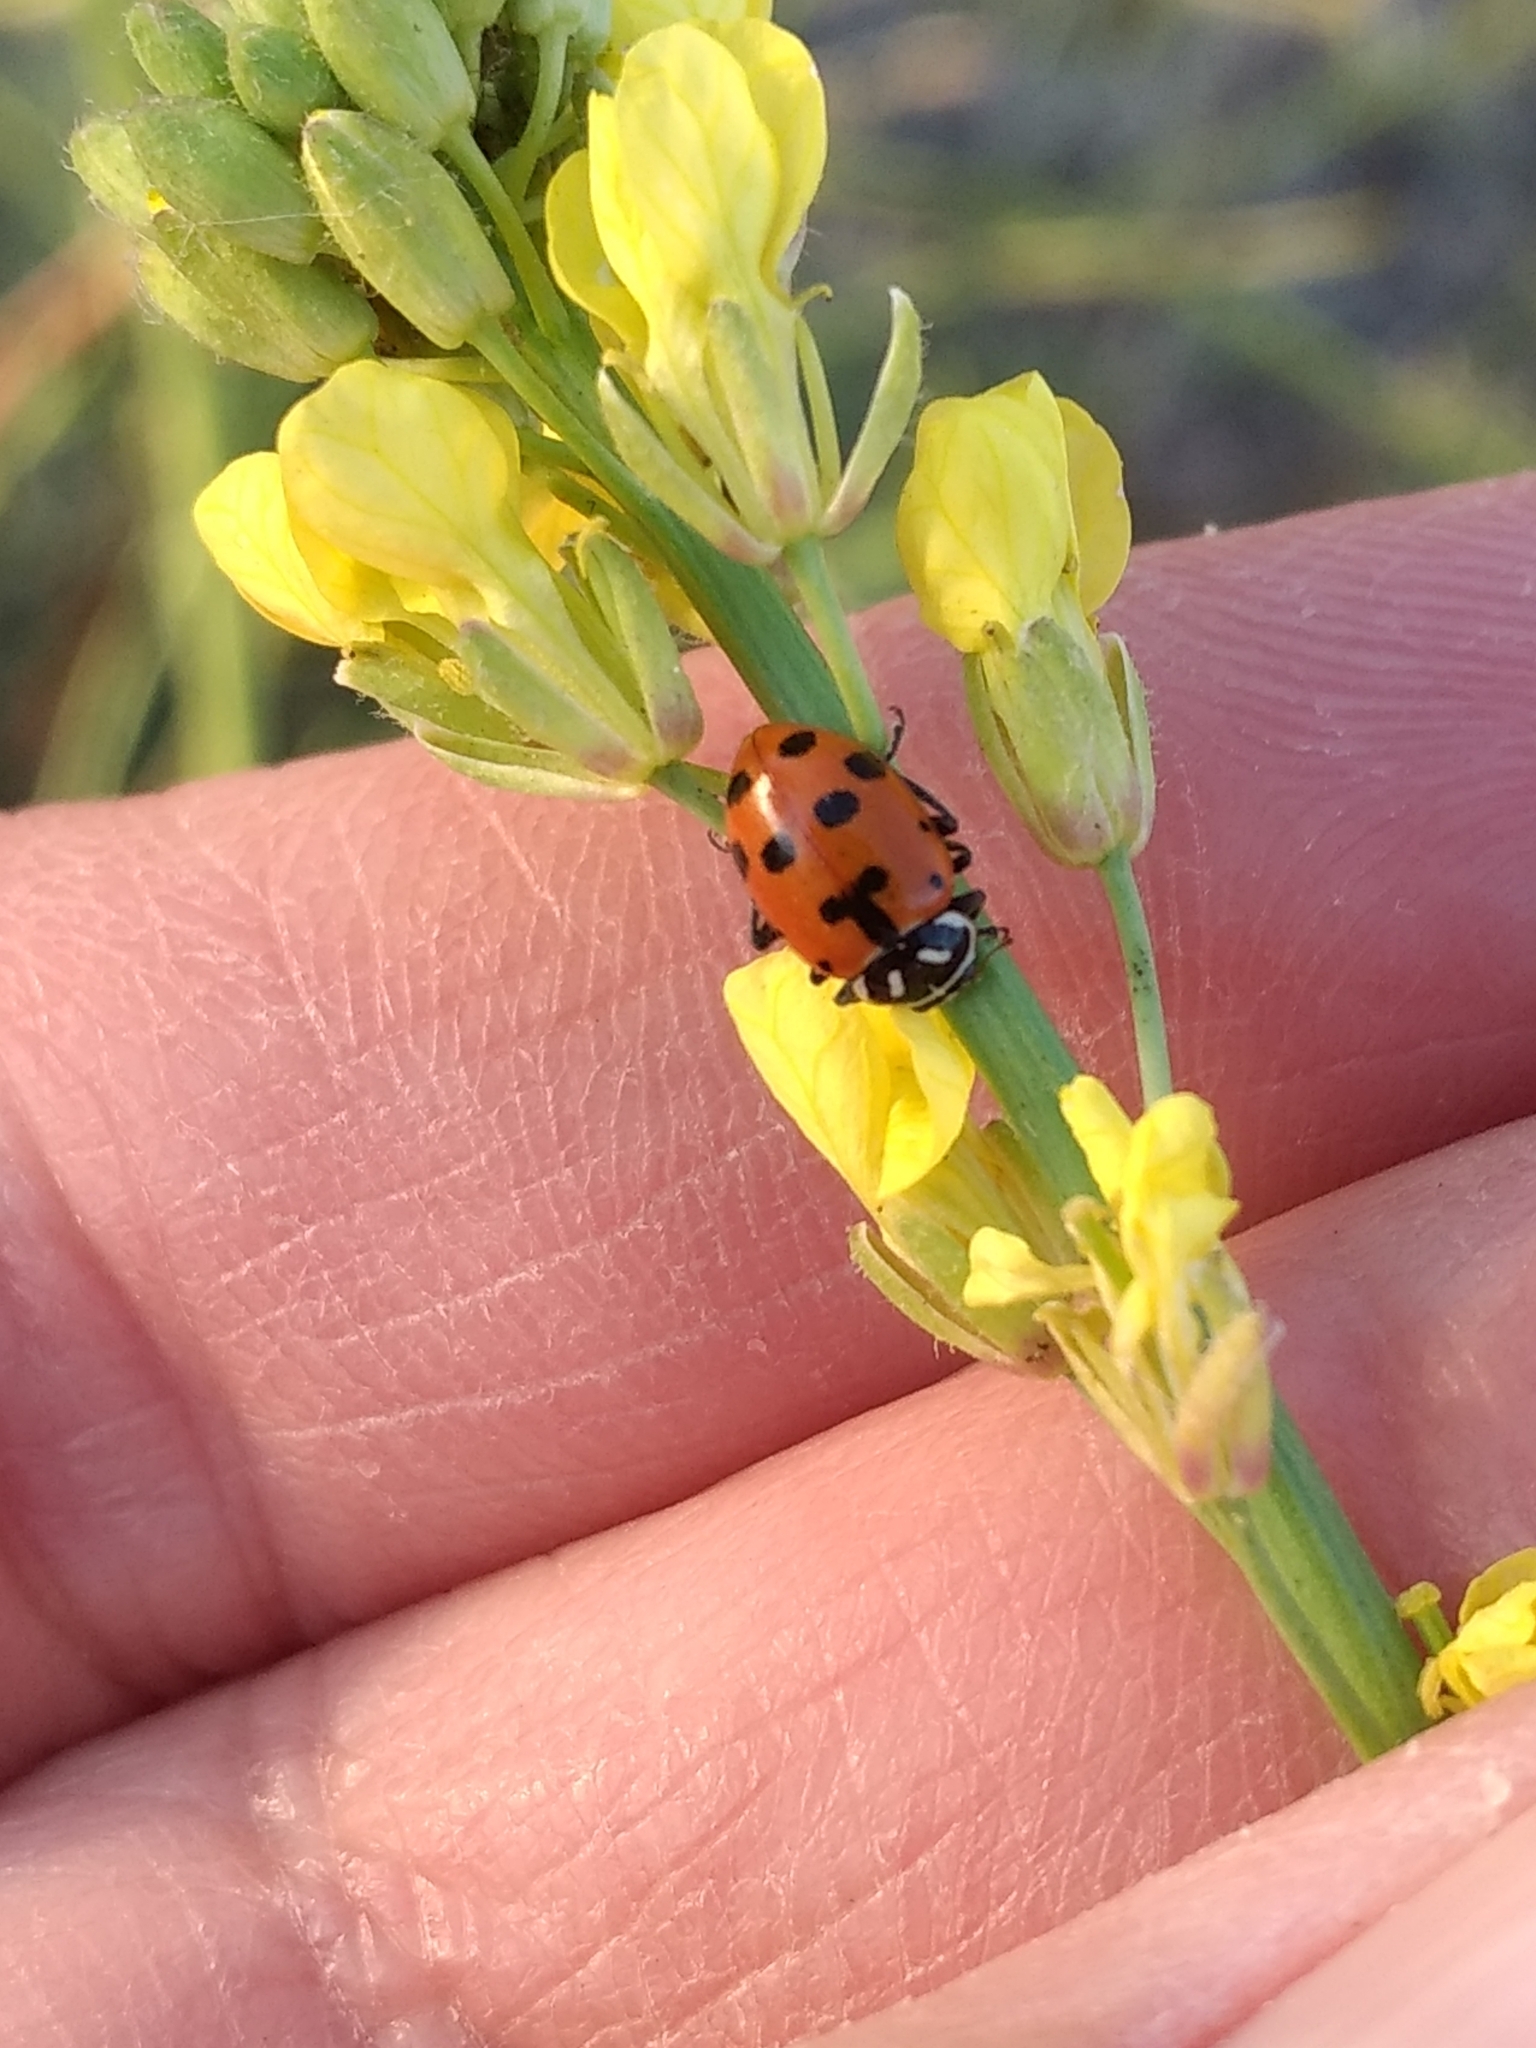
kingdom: Animalia
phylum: Arthropoda
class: Insecta
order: Coleoptera
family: Coccinellidae
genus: Hippodamia
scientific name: Hippodamia convergens
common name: Convergent lady beetle
